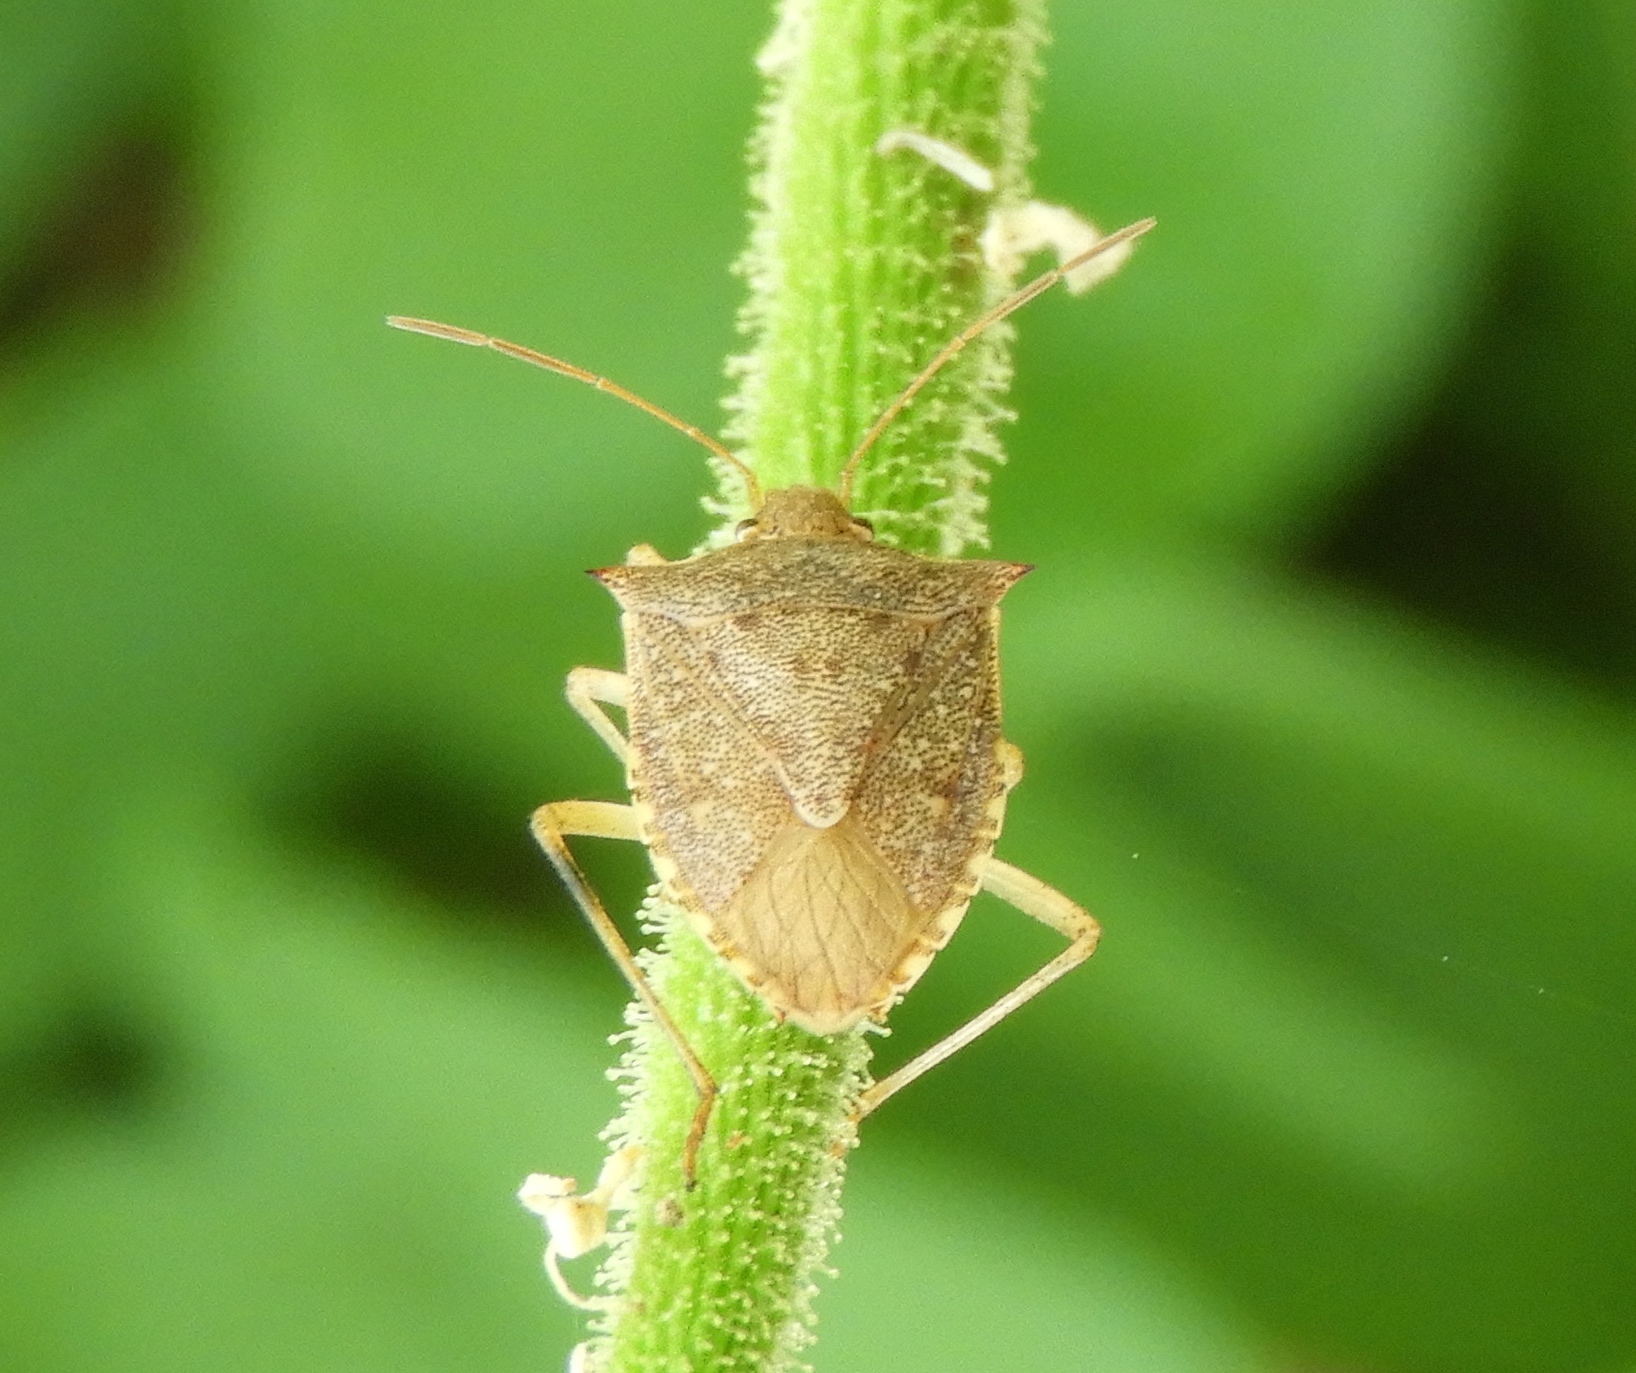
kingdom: Animalia
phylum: Arthropoda
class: Insecta
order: Hemiptera
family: Pentatomidae
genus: Euschistus
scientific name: Euschistus
